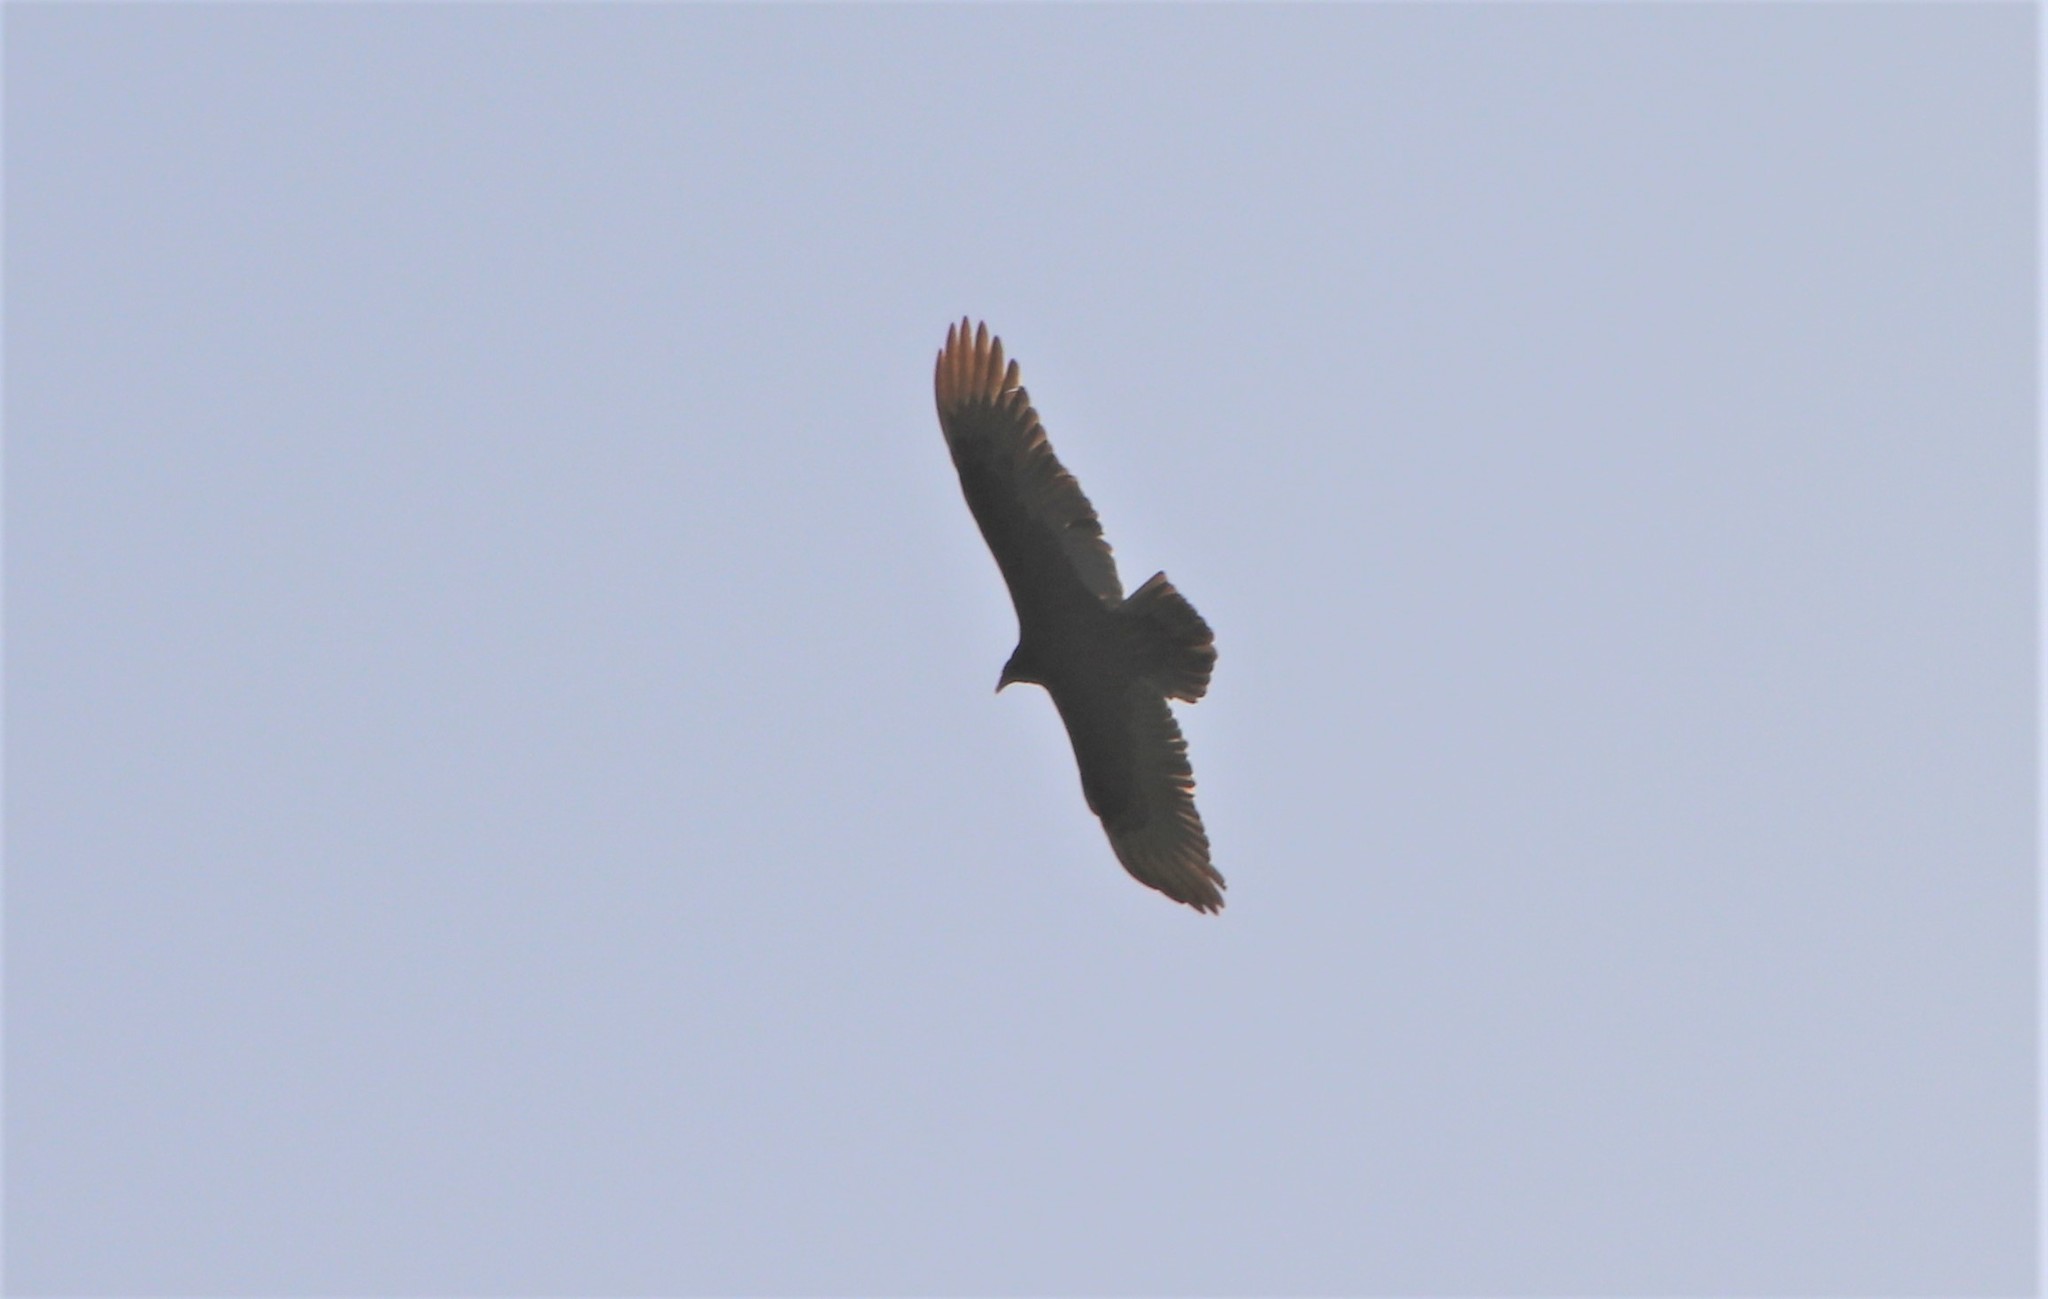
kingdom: Animalia
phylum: Chordata
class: Aves
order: Accipitriformes
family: Cathartidae
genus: Cathartes
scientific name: Cathartes aura
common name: Turkey vulture
